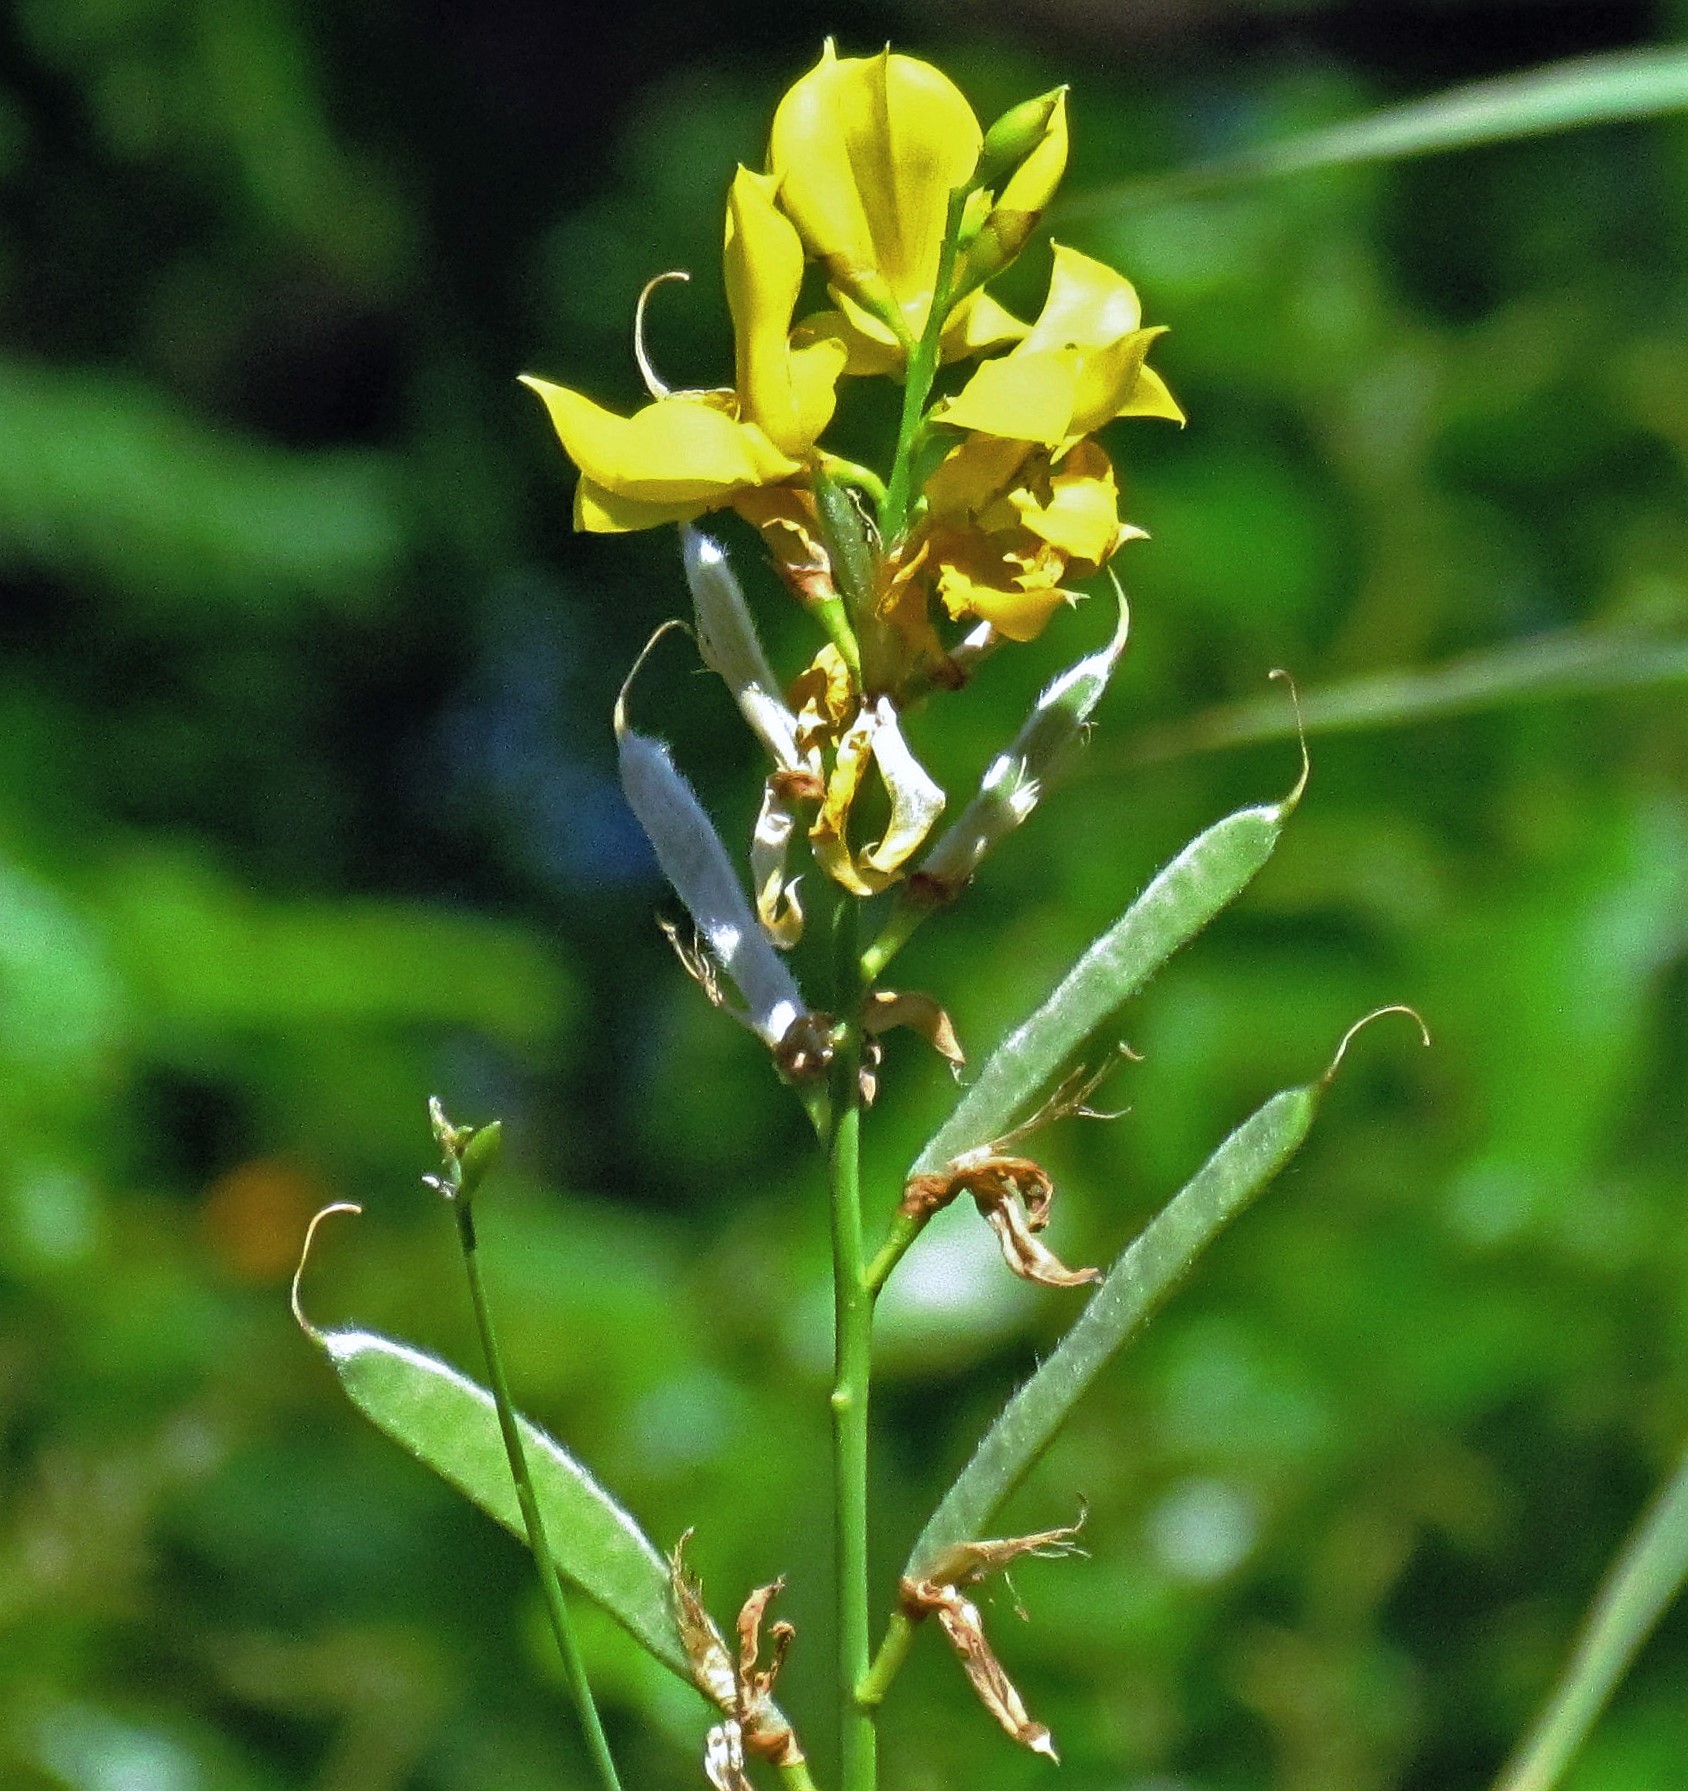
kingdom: Plantae
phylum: Tracheophyta
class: Magnoliopsida
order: Fabales
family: Fabaceae
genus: Spartium
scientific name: Spartium junceum
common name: Spanish broom
